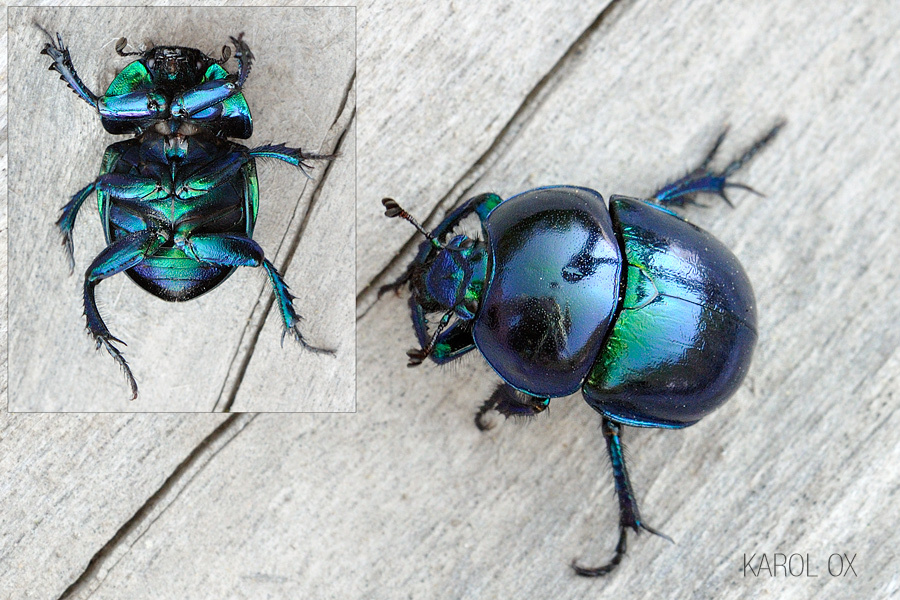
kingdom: Animalia
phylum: Arthropoda
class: Insecta
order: Coleoptera
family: Geotrupidae
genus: Trypocopris
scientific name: Trypocopris vernalis
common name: Spring dumbledor
